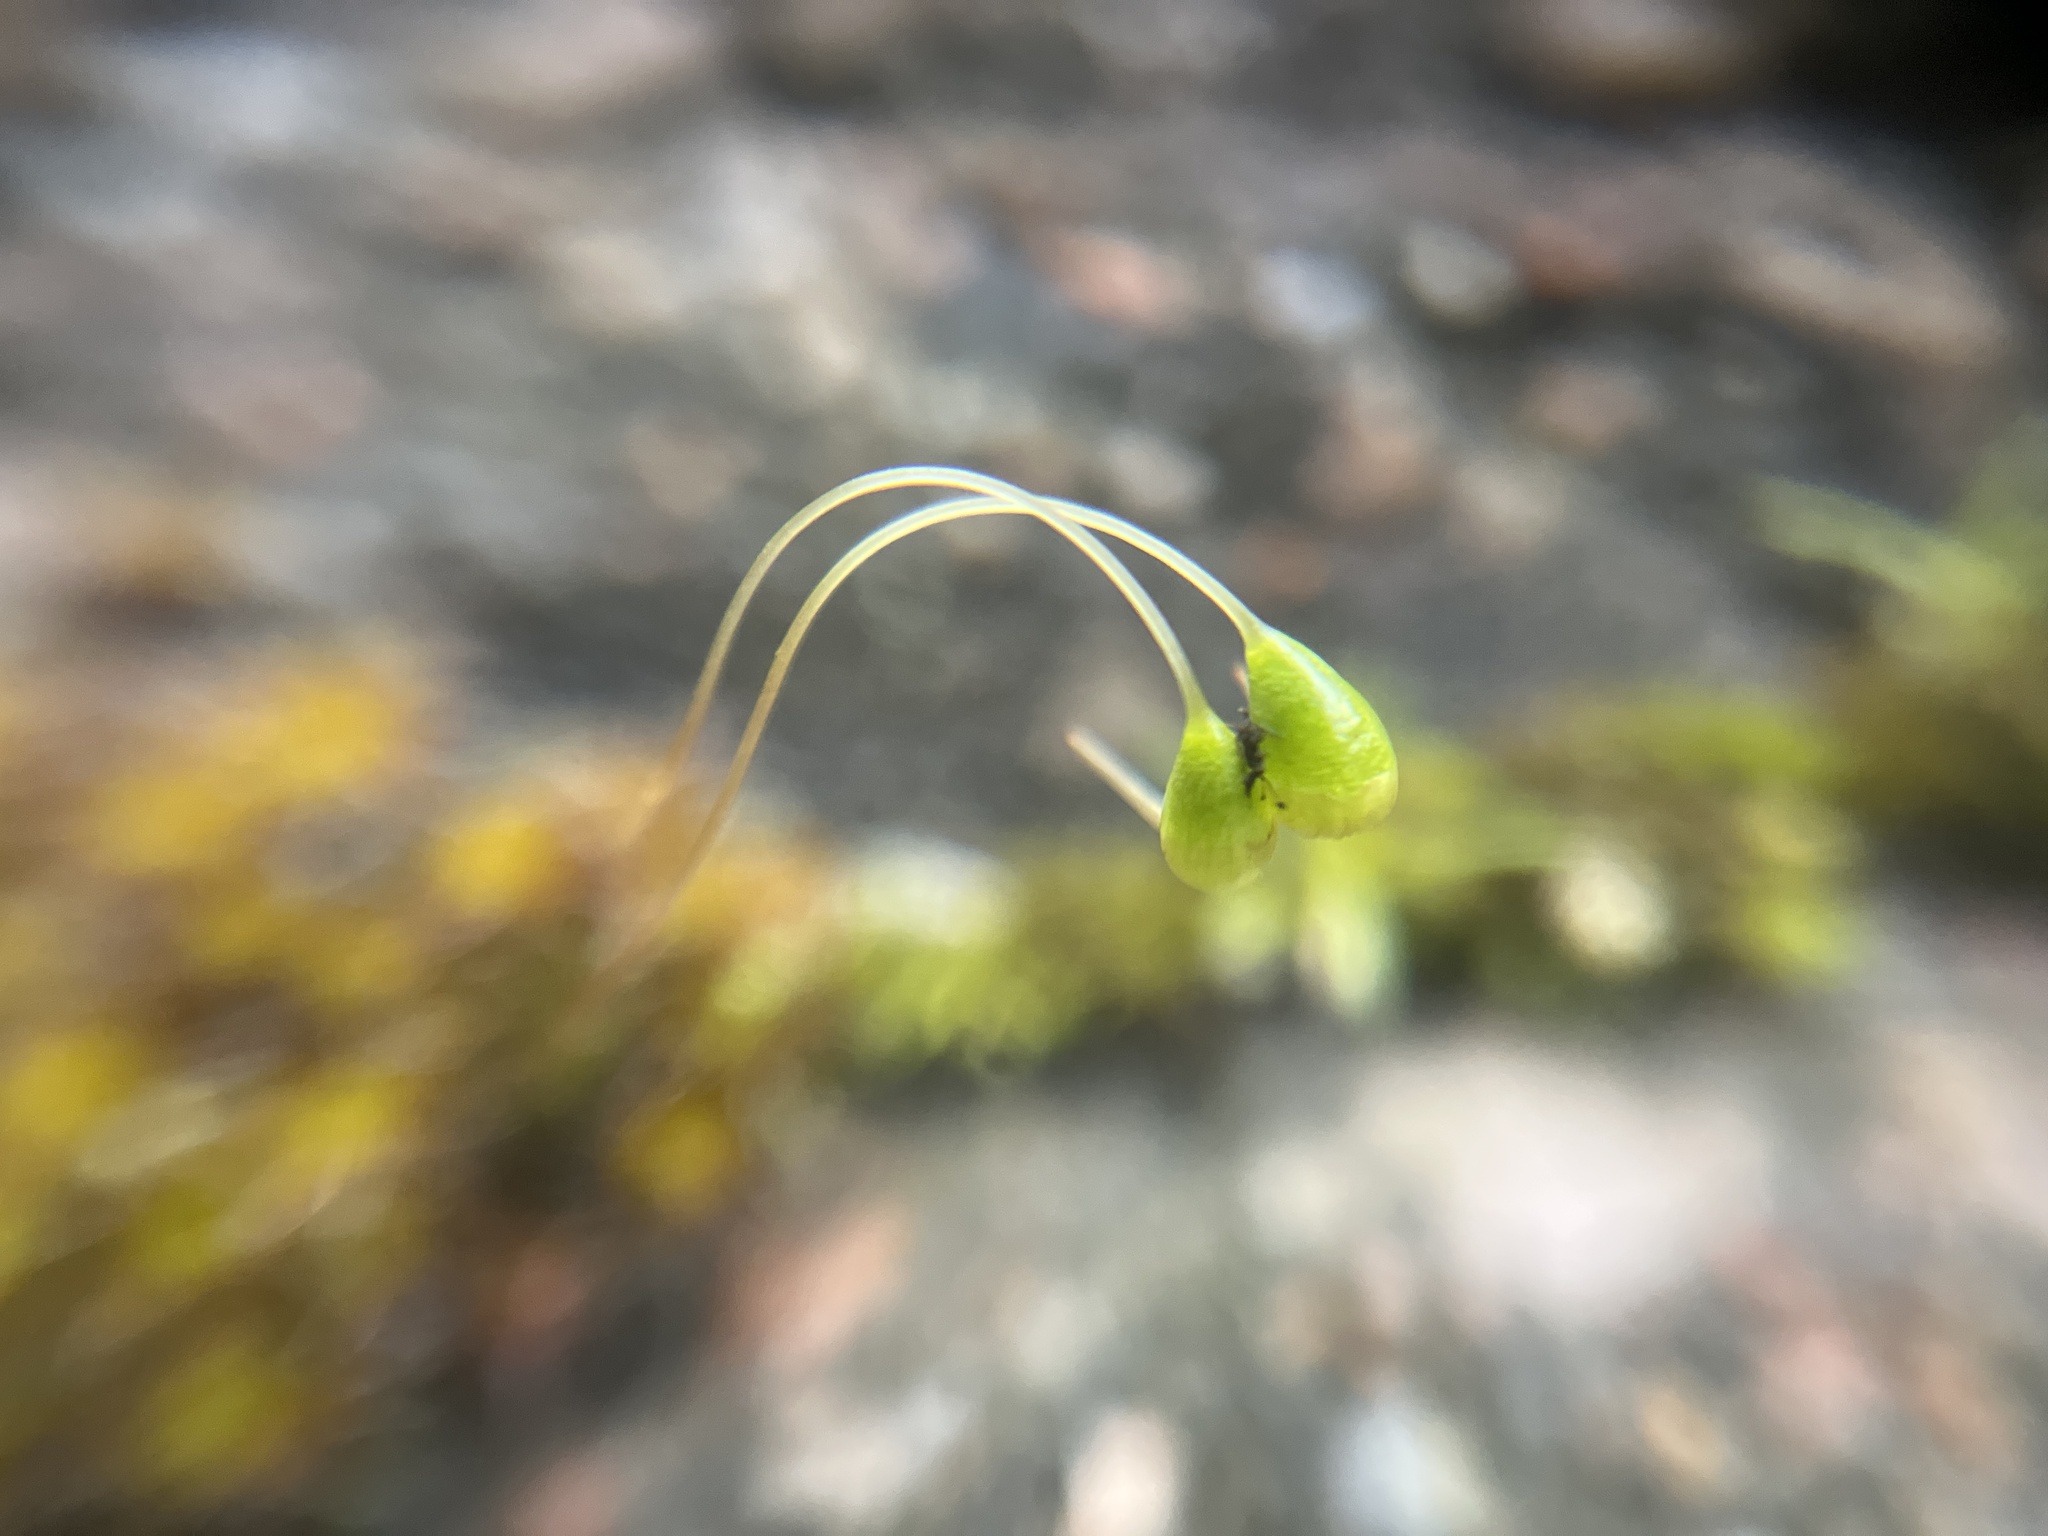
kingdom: Plantae
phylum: Bryophyta
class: Bryopsida
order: Funariales
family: Funariaceae
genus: Funaria
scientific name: Funaria hygrometrica
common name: Common cord moss
